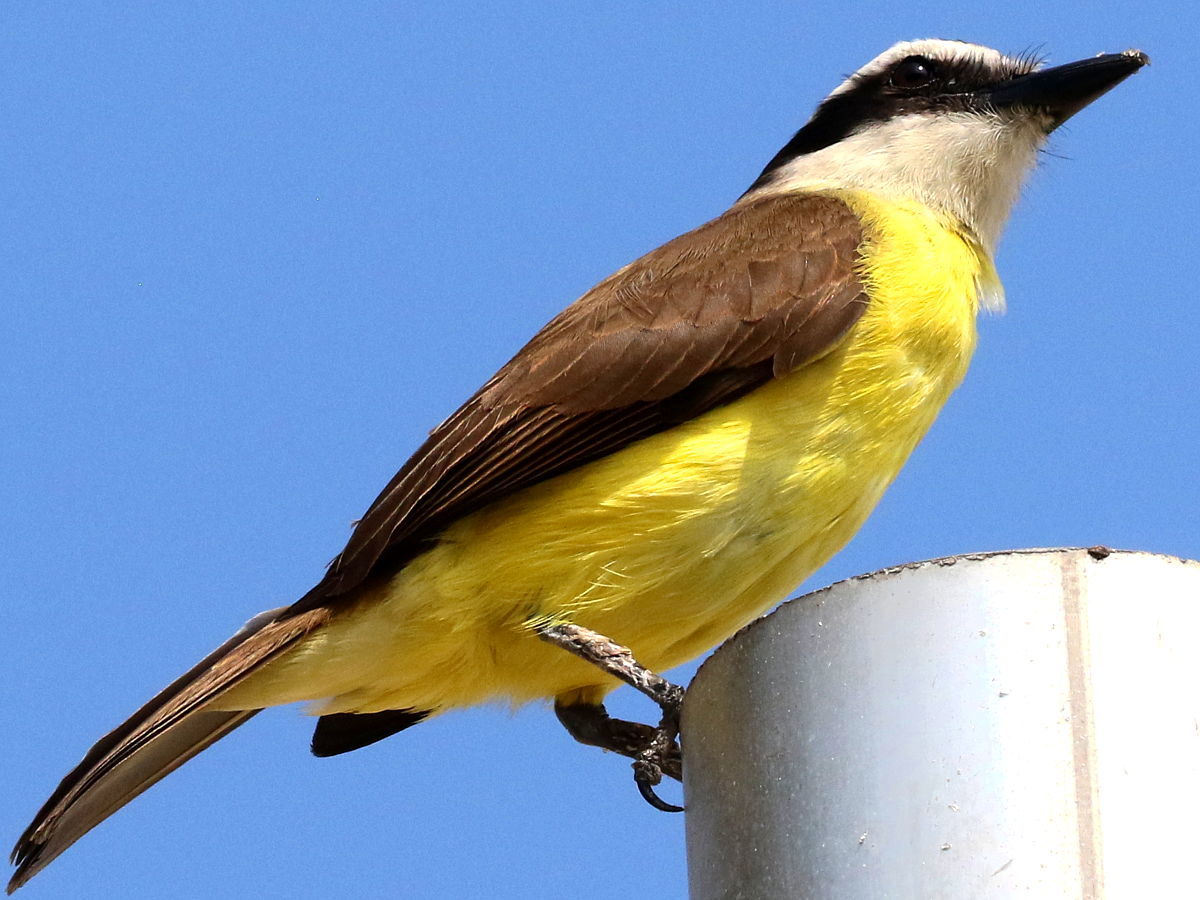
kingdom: Animalia
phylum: Chordata
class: Aves
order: Passeriformes
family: Tyrannidae
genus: Pitangus
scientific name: Pitangus sulphuratus
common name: Great kiskadee
